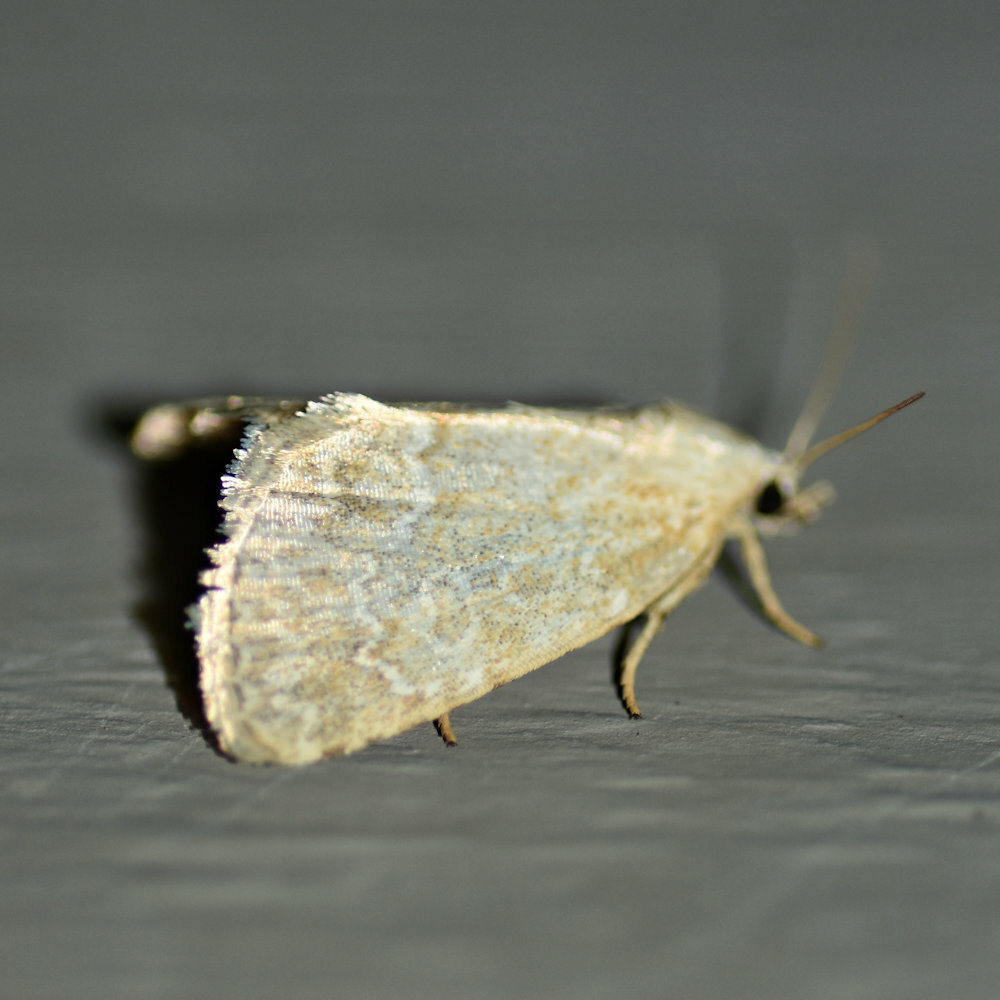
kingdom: Animalia
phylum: Arthropoda
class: Insecta
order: Lepidoptera
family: Noctuidae
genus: Protodeltote
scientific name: Protodeltote albidula
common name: Pale glyph
